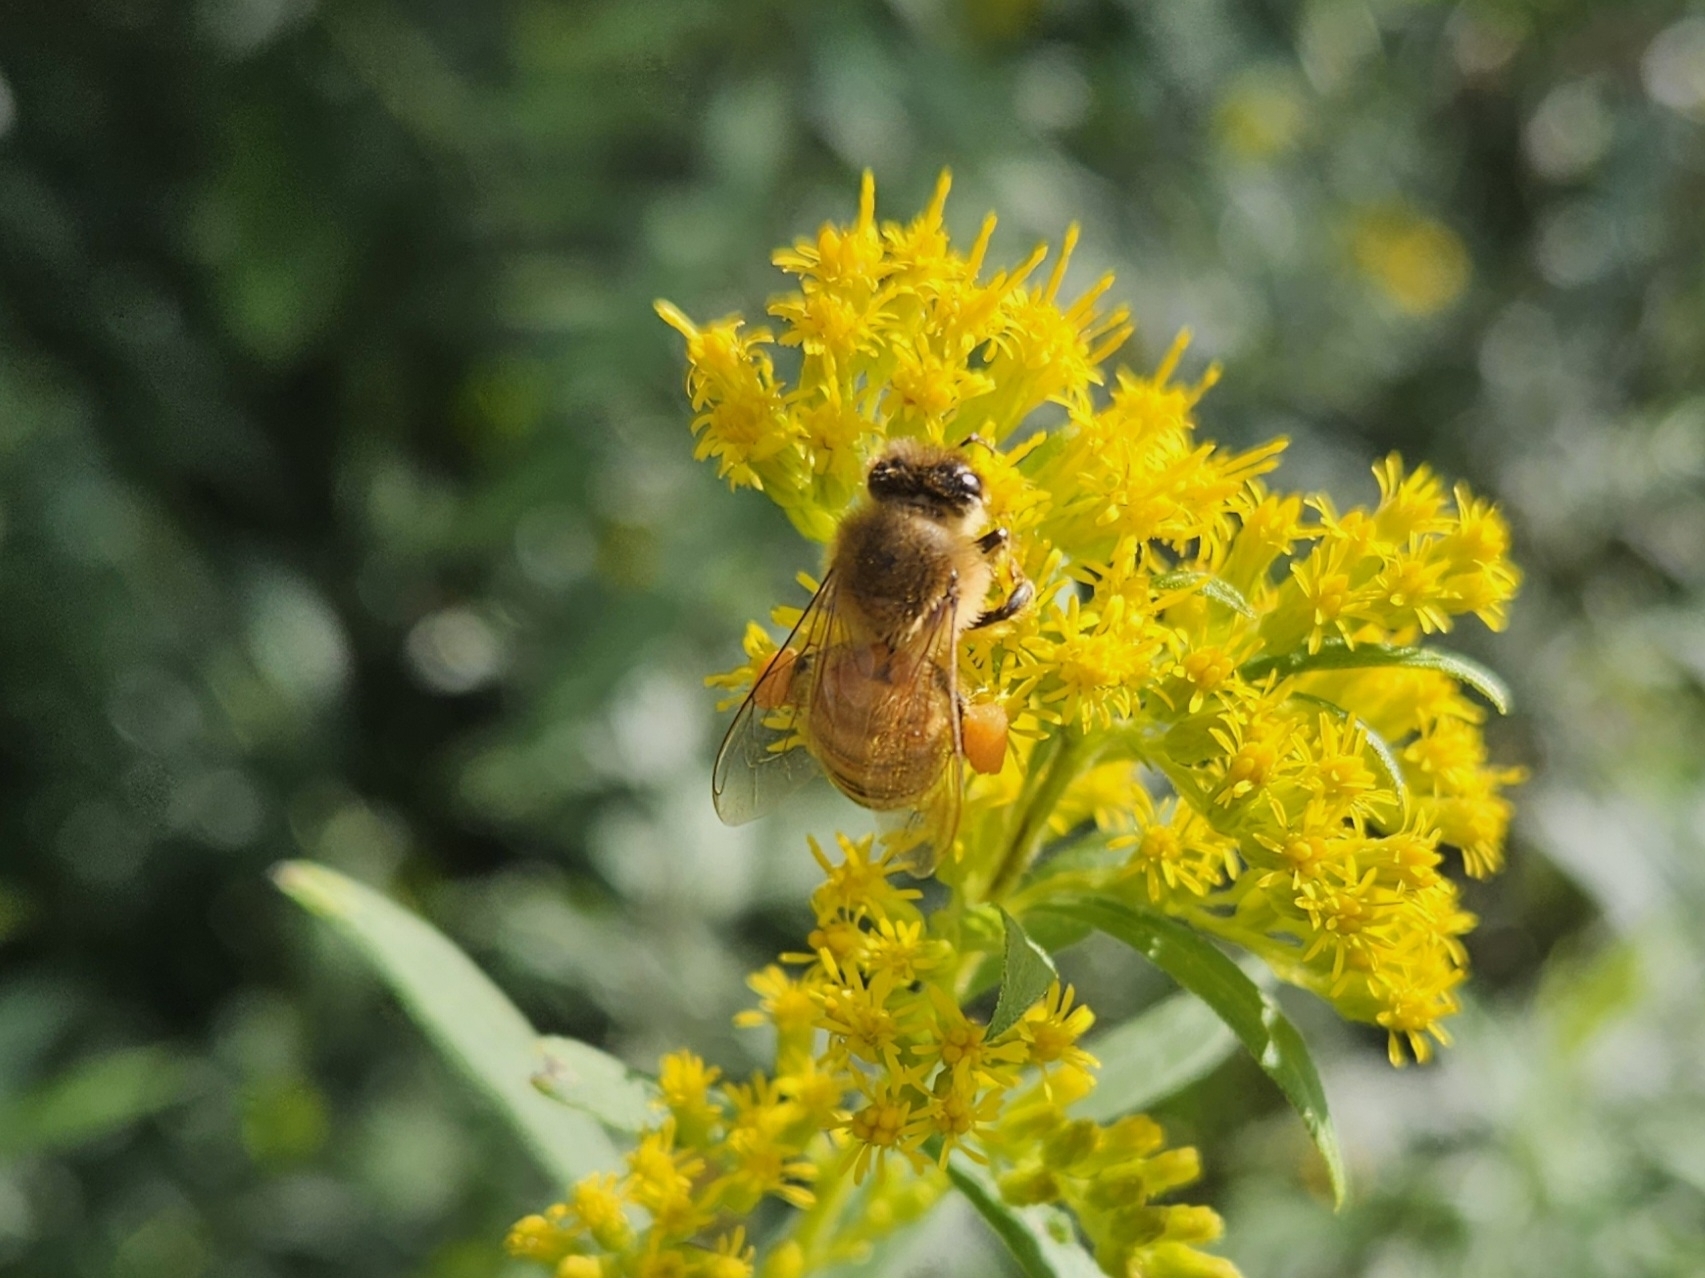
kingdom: Animalia
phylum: Arthropoda
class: Insecta
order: Hymenoptera
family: Apidae
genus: Apis
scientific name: Apis mellifera
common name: Honey bee
